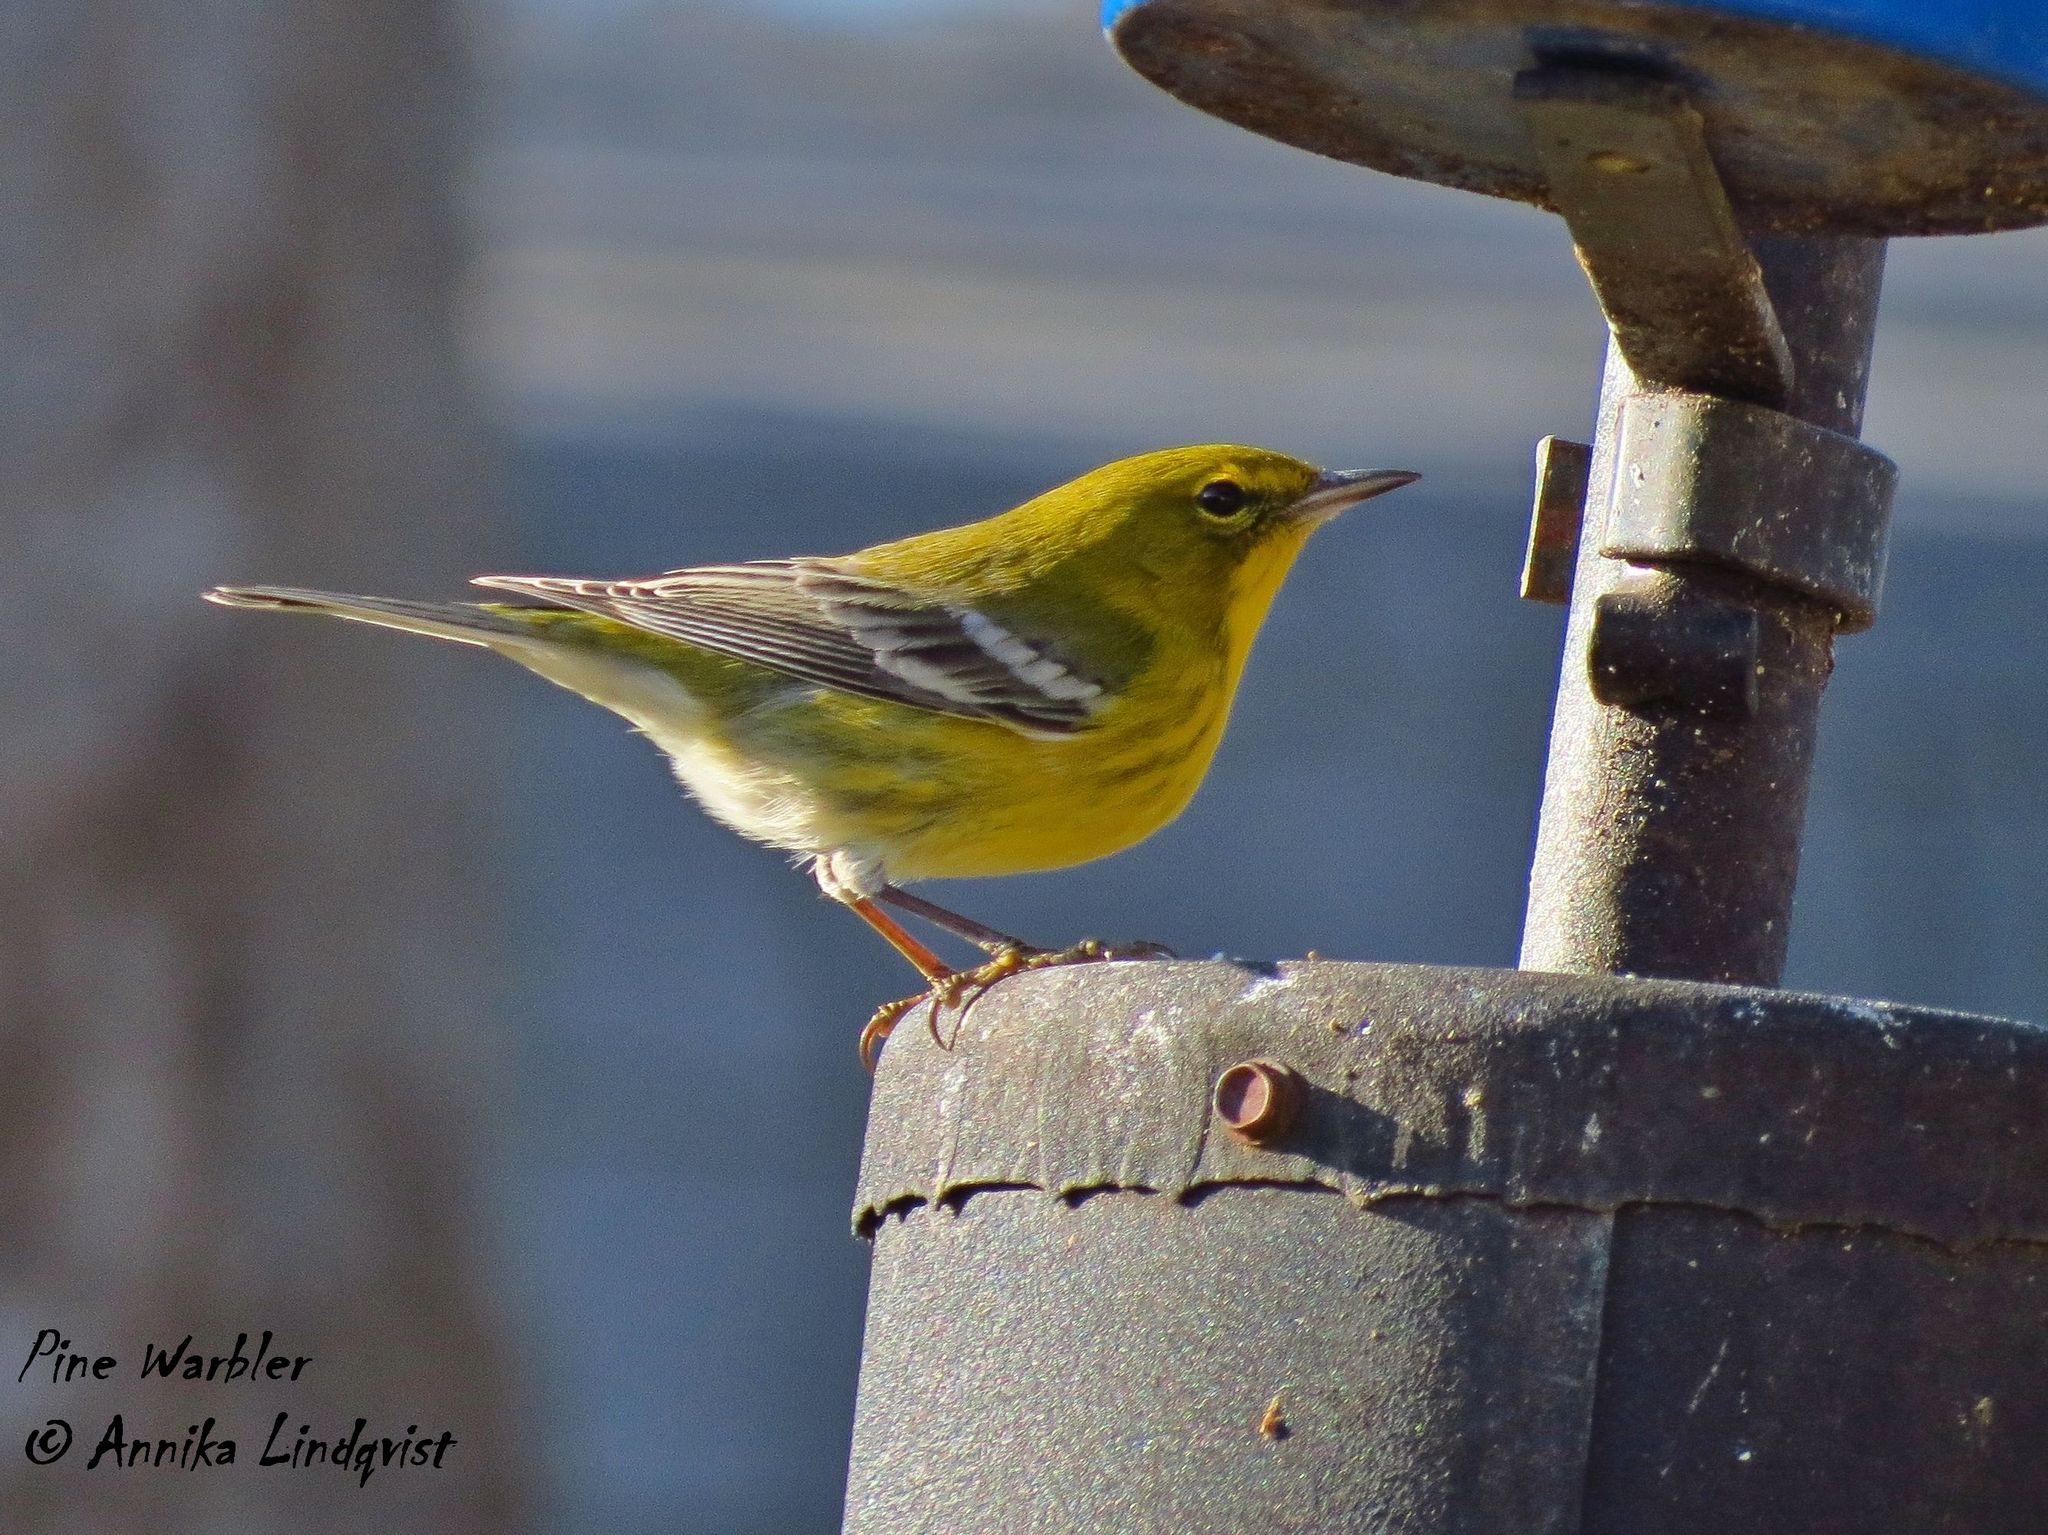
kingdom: Animalia
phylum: Chordata
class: Aves
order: Passeriformes
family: Parulidae
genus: Setophaga
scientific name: Setophaga pinus
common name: Pine warbler
